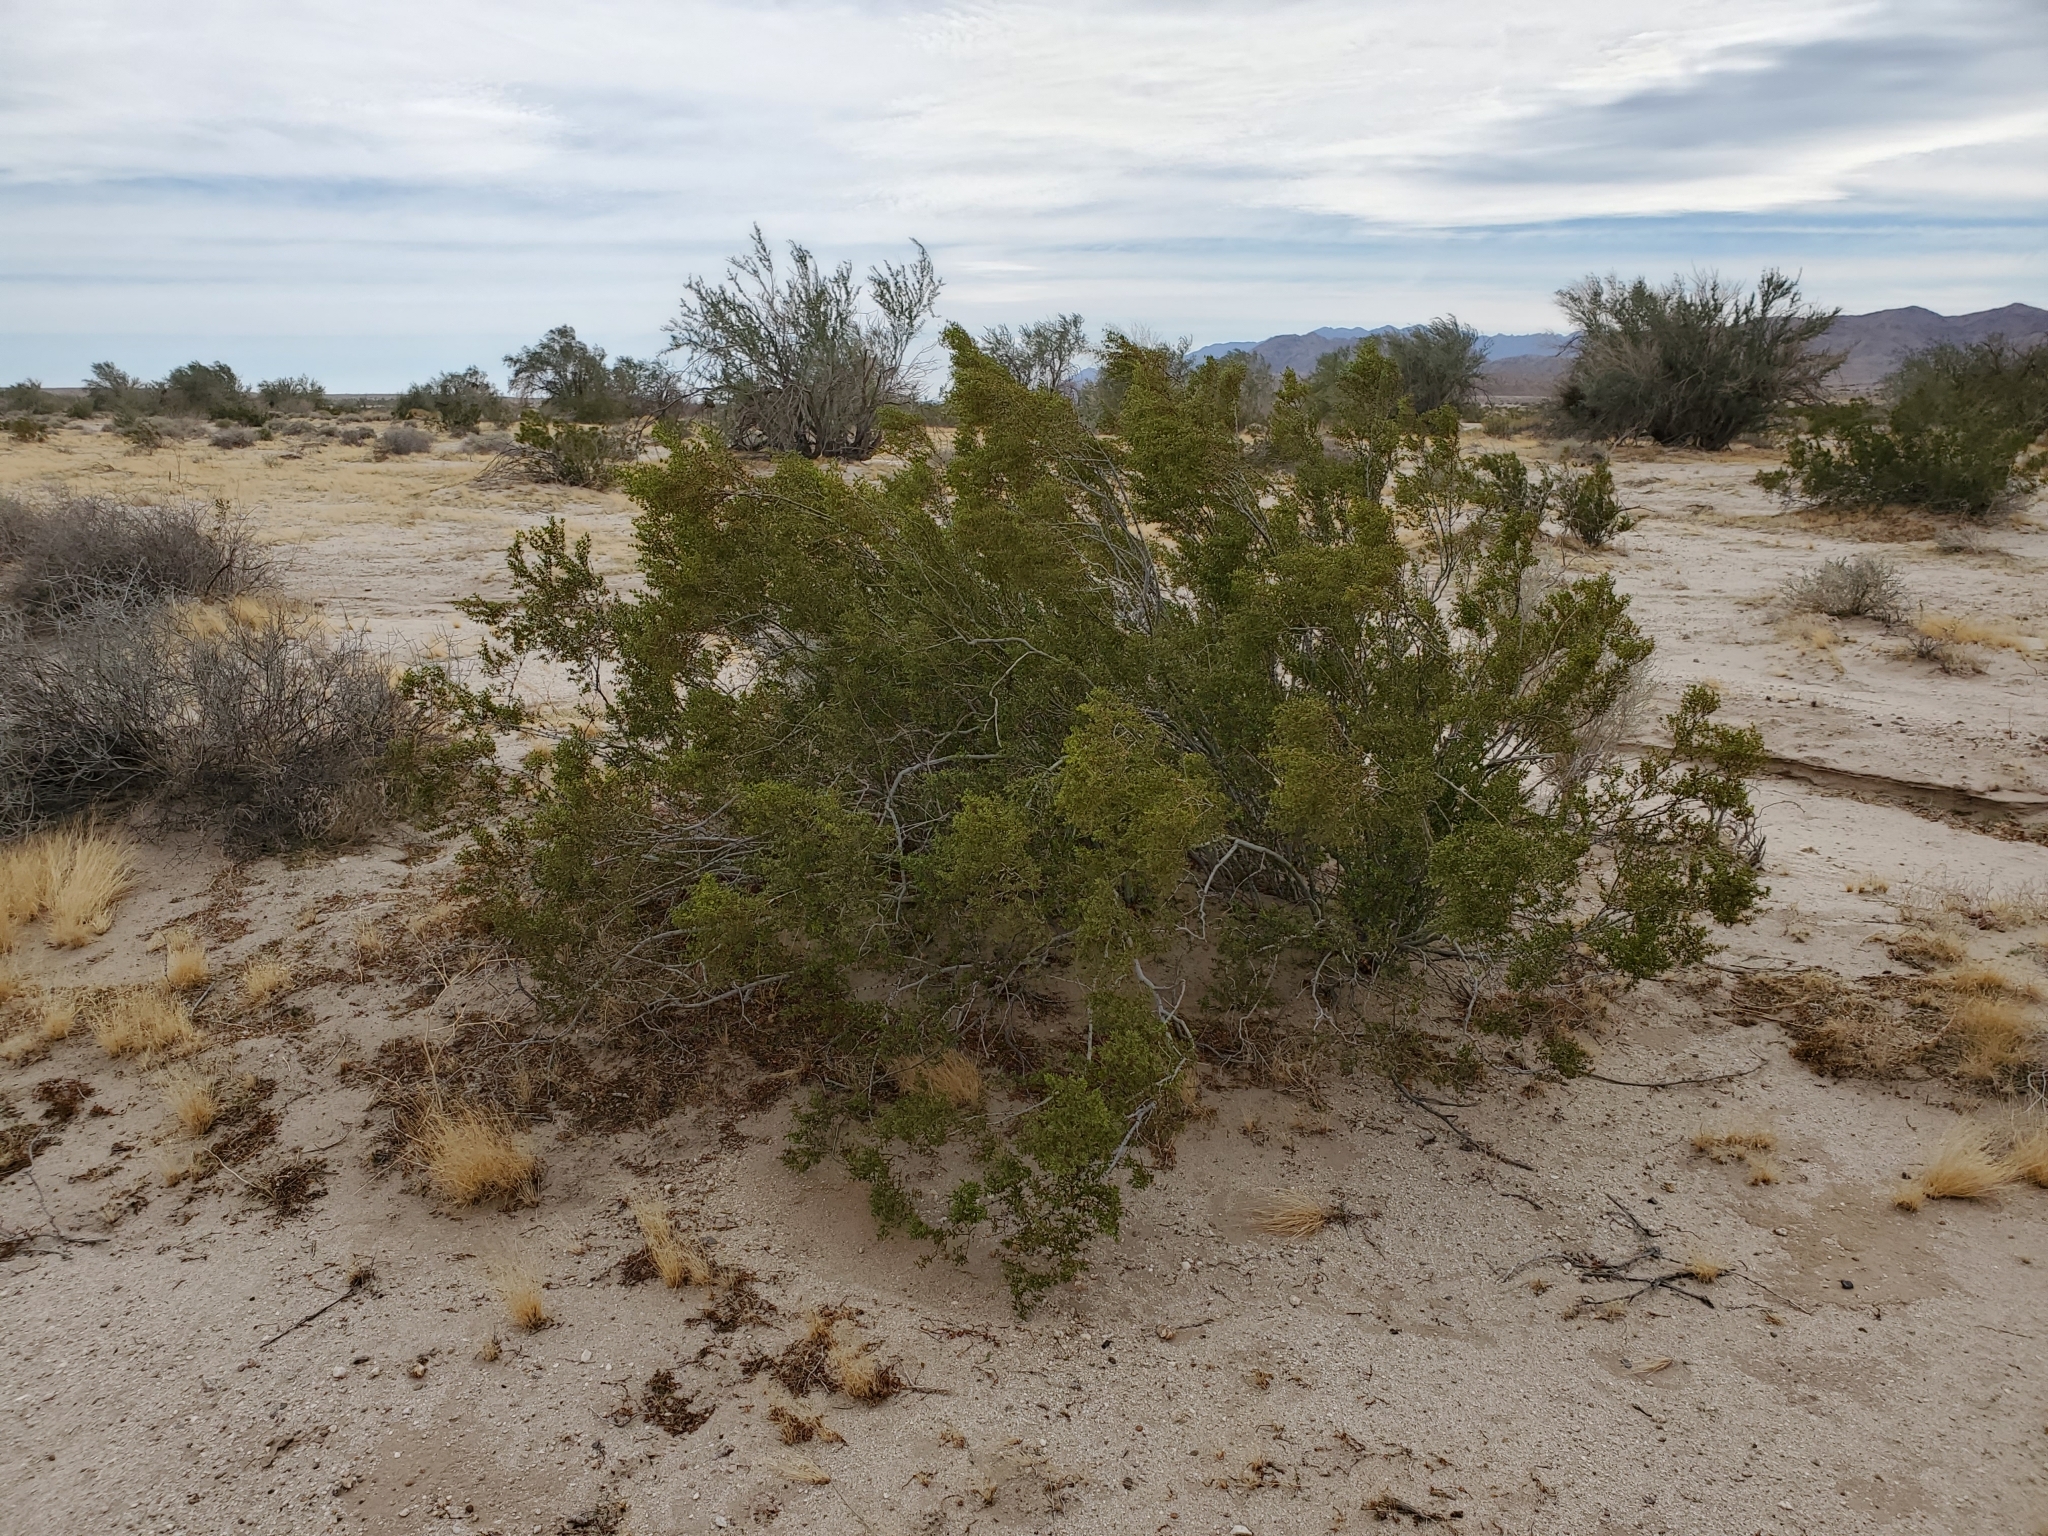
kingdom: Plantae
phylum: Tracheophyta
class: Magnoliopsida
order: Zygophyllales
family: Zygophyllaceae
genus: Larrea
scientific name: Larrea tridentata
